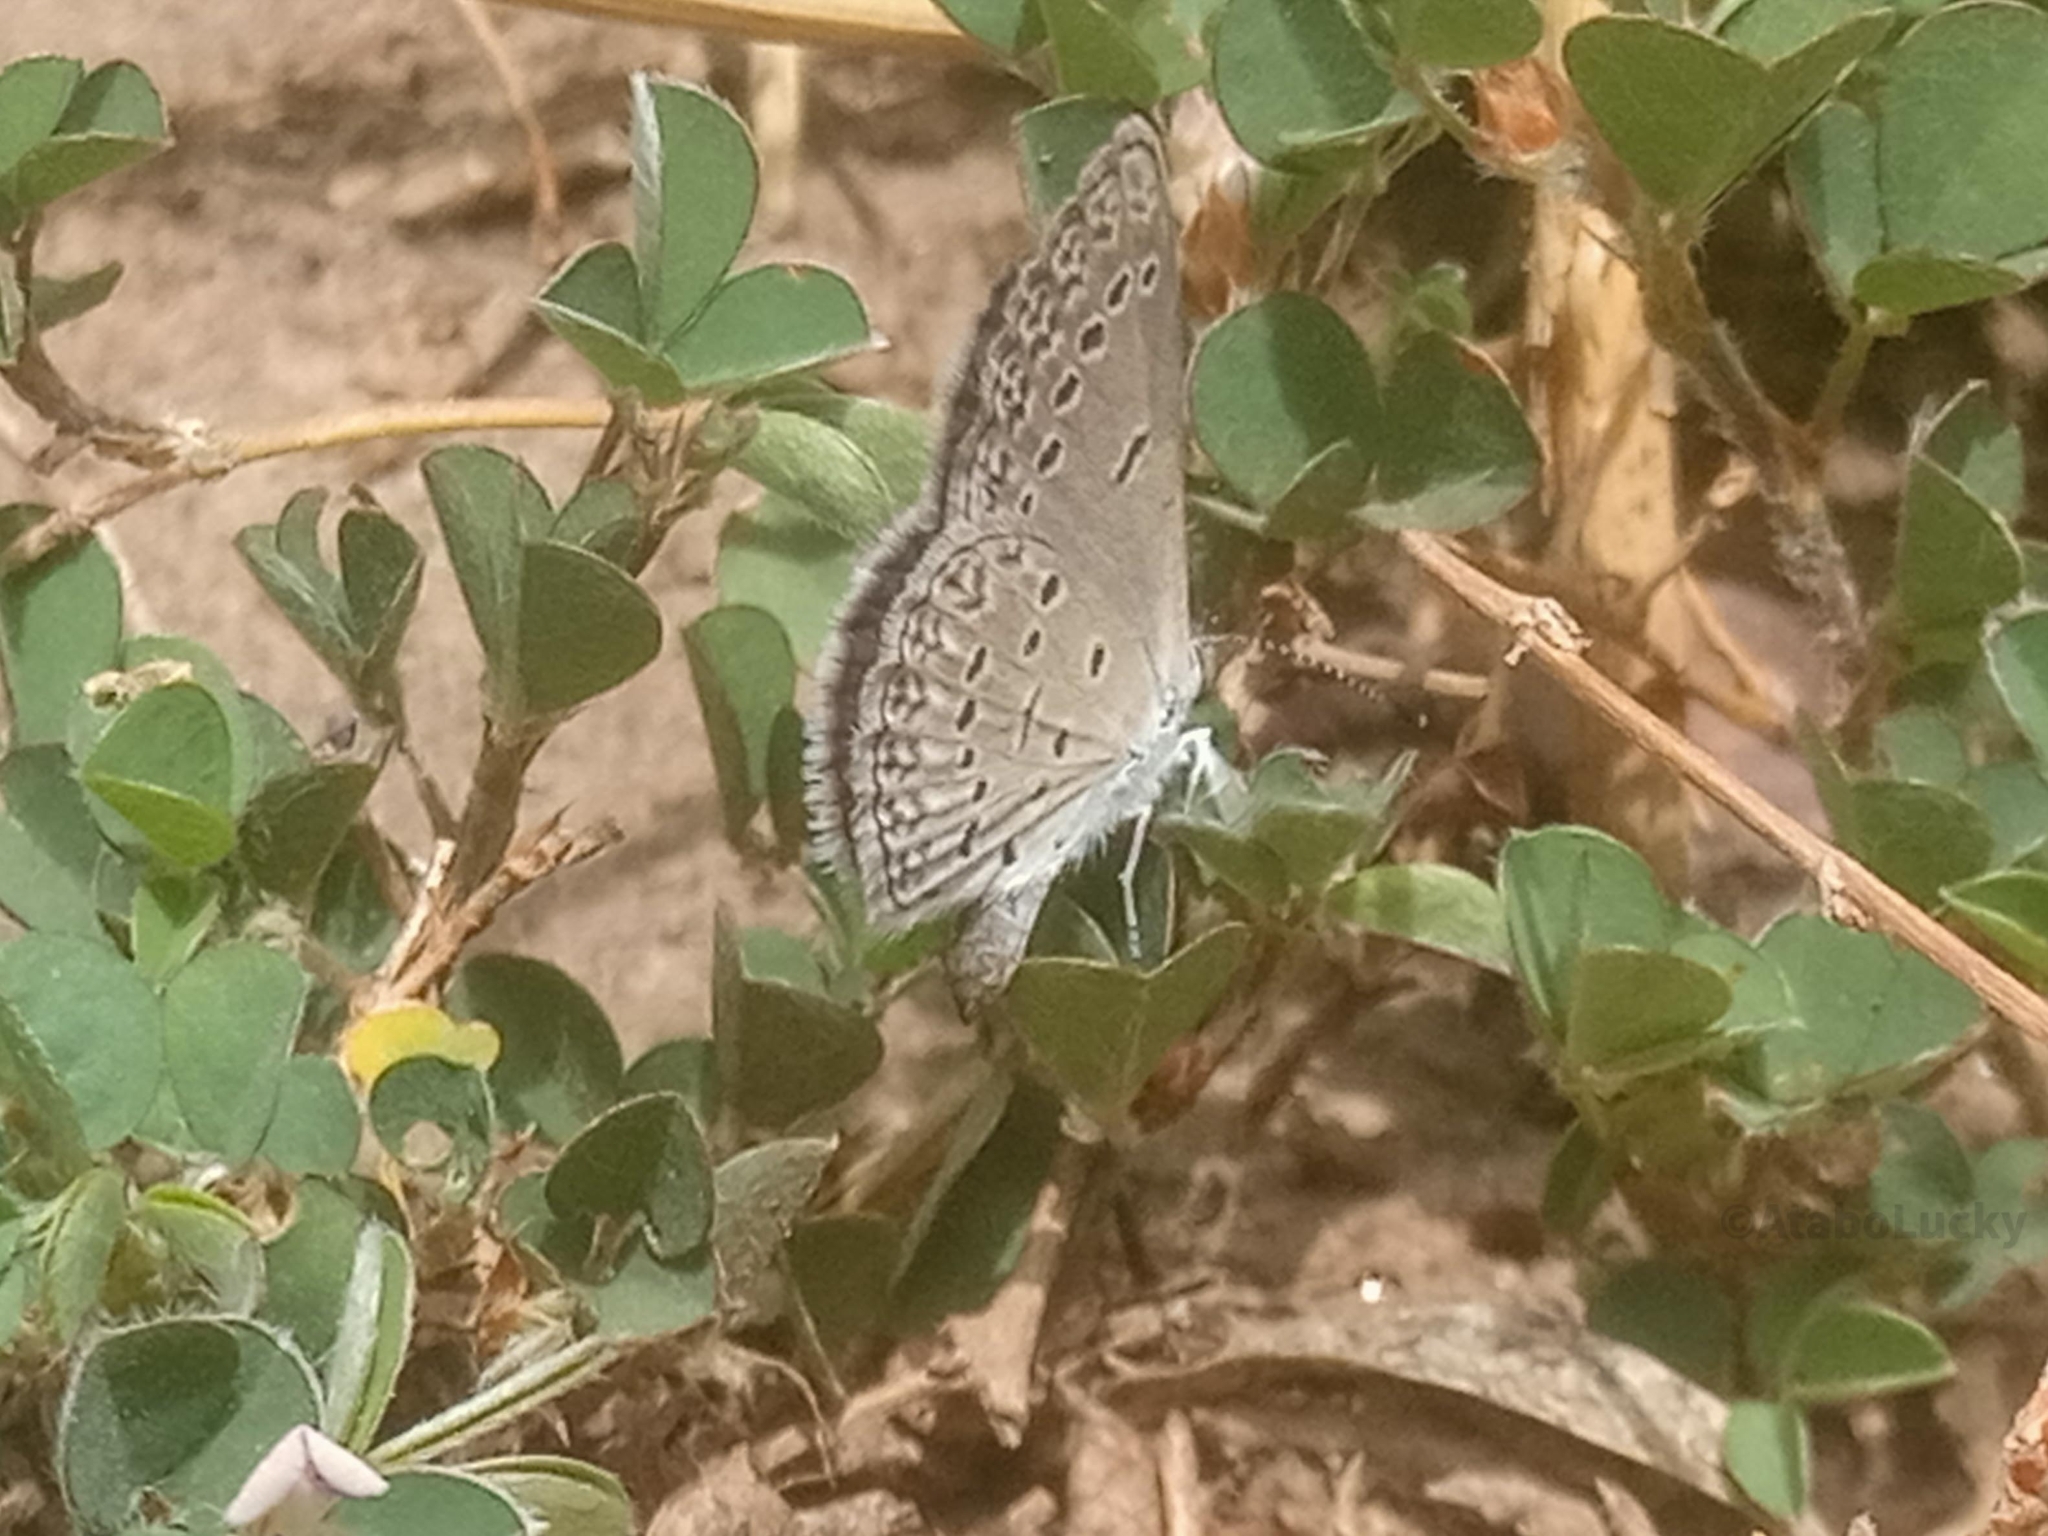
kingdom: Animalia
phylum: Arthropoda
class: Insecta
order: Lepidoptera
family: Lycaenidae
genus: Zizina
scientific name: Zizina antanossa
